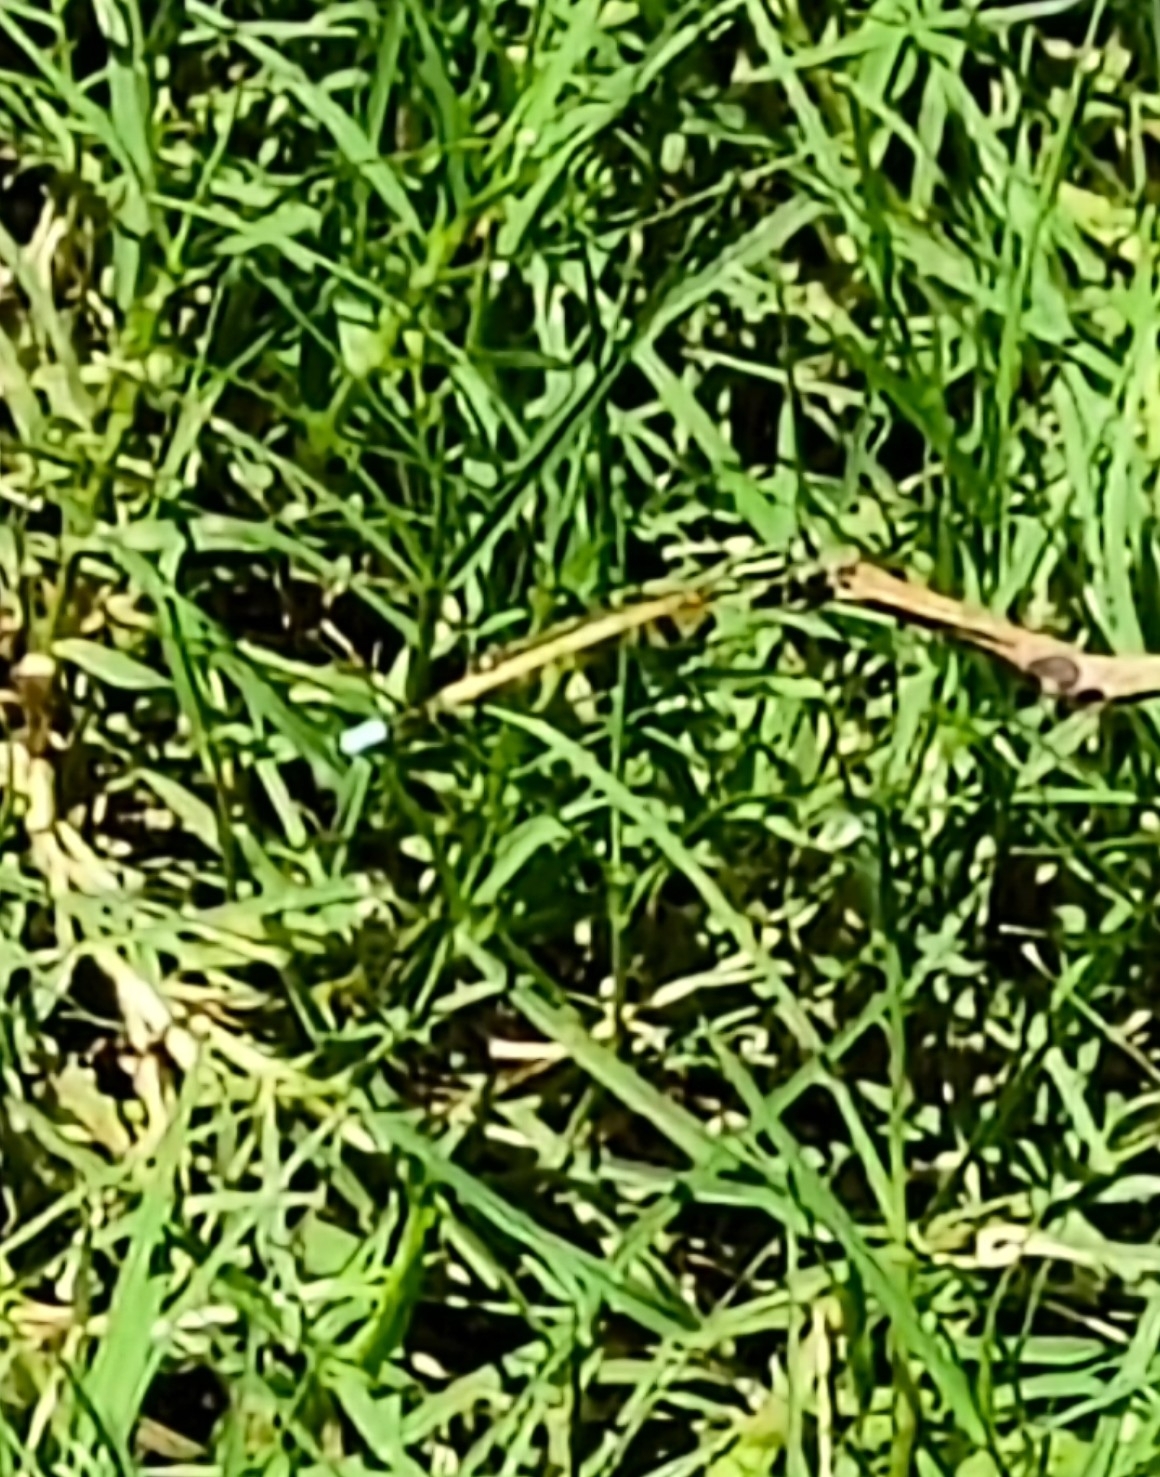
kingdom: Animalia
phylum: Arthropoda
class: Insecta
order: Odonata
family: Coenagrionidae
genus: Ischnura
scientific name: Ischnura rubilio
